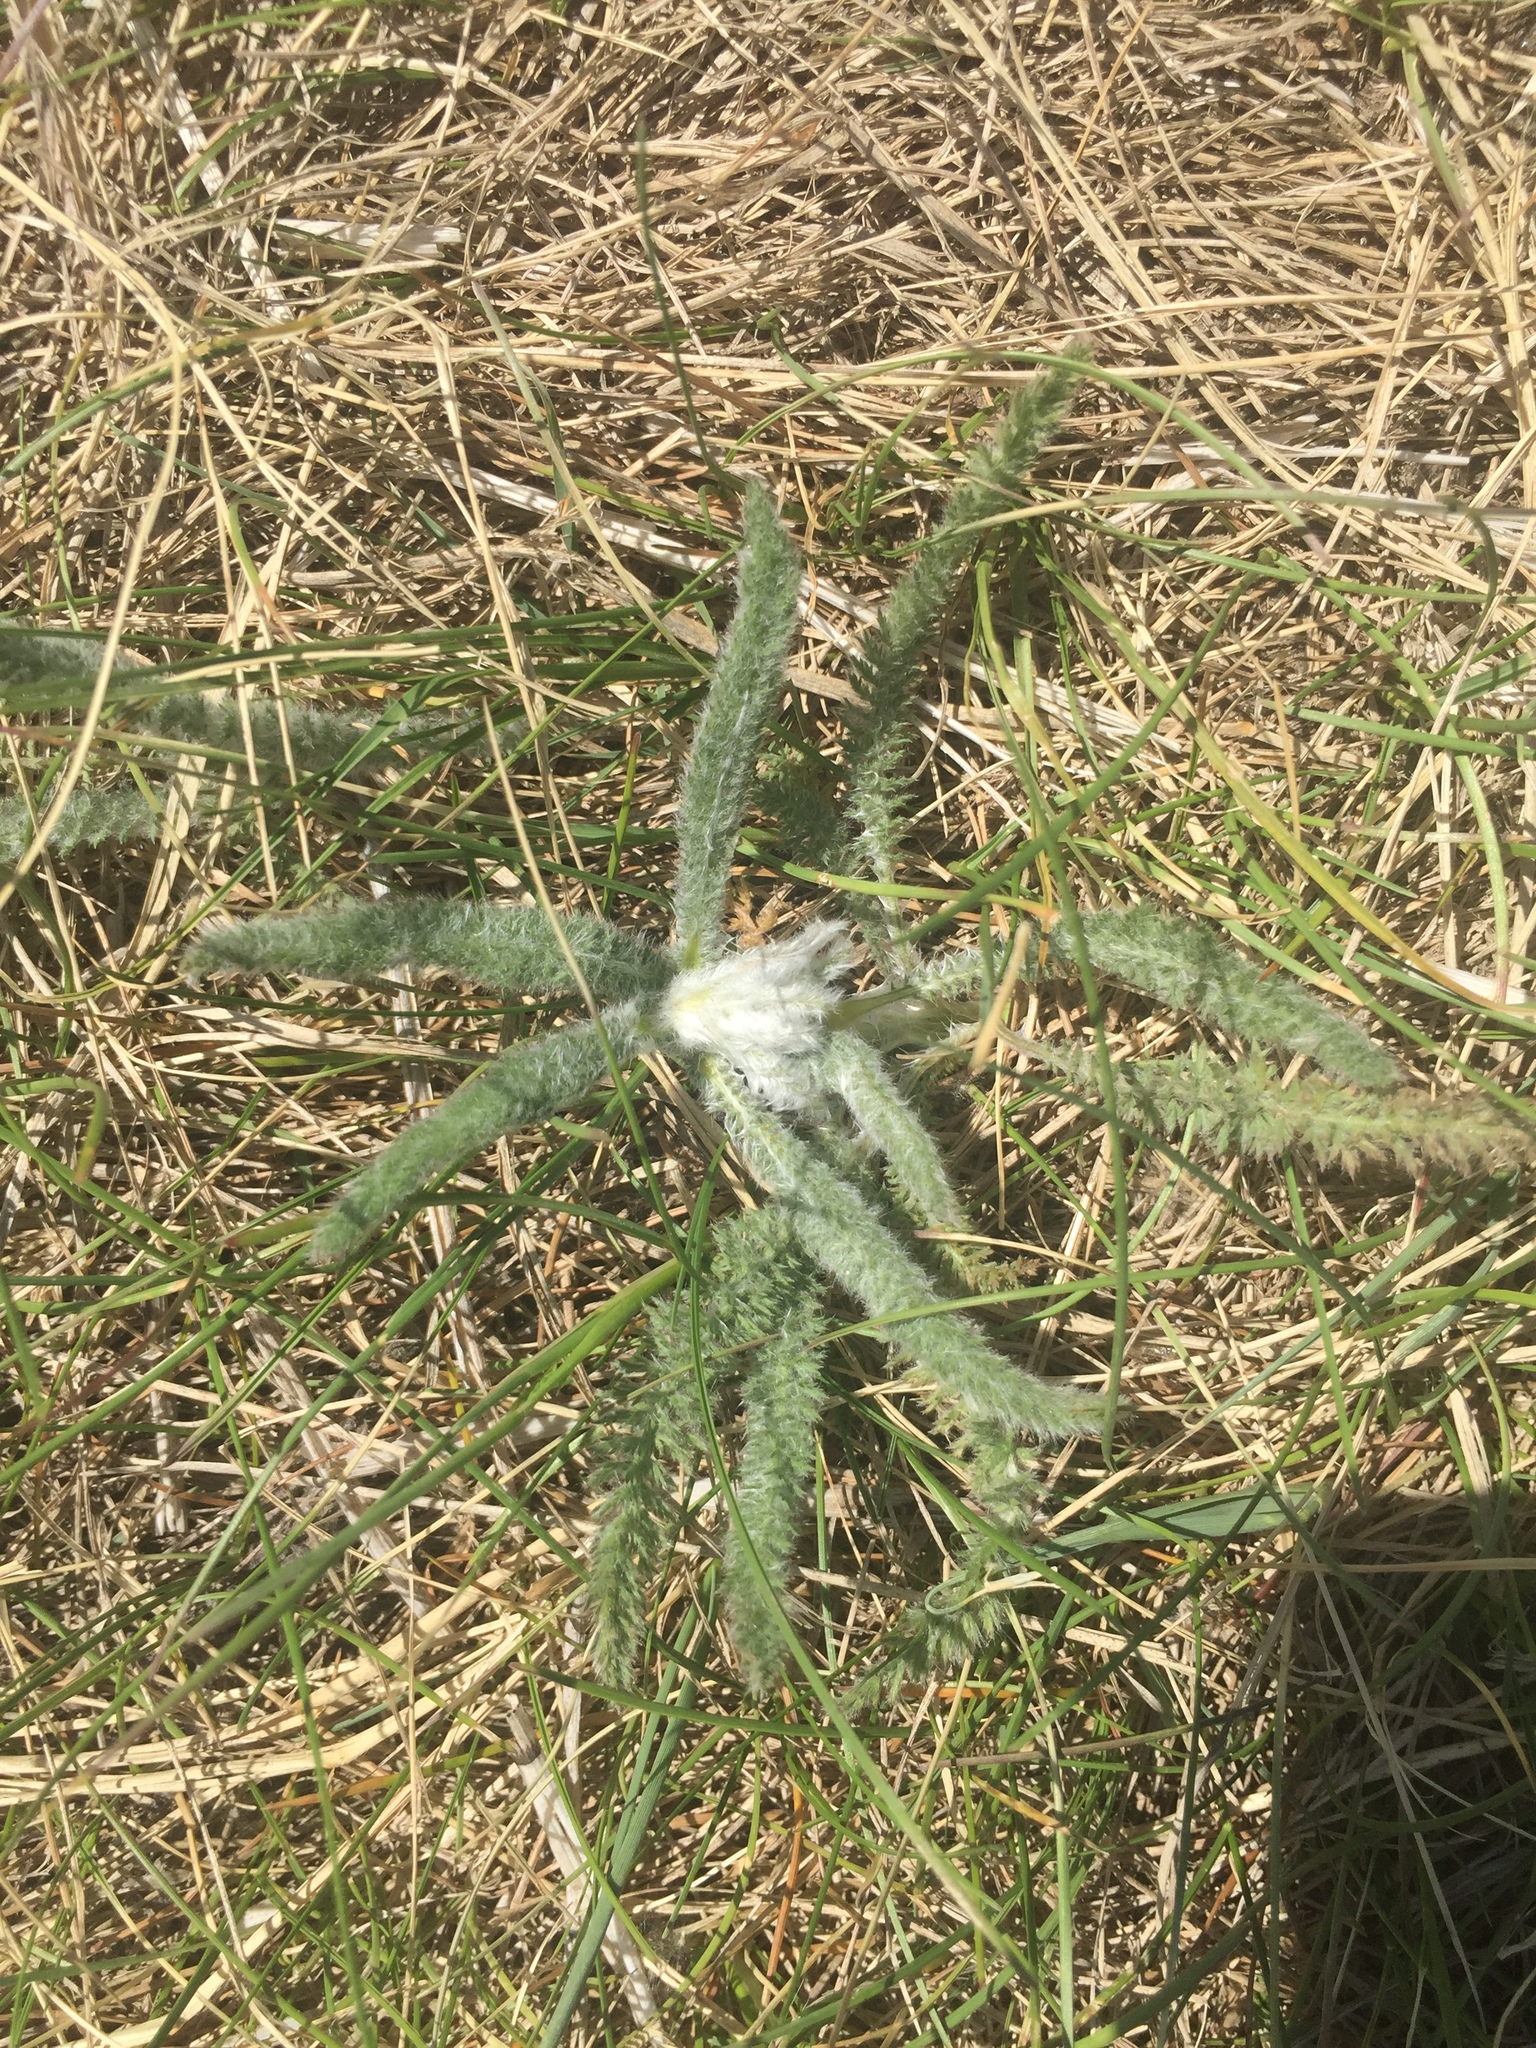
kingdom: Plantae
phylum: Tracheophyta
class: Magnoliopsida
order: Asterales
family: Asteraceae
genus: Achillea
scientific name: Achillea millefolium
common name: Yarrow
